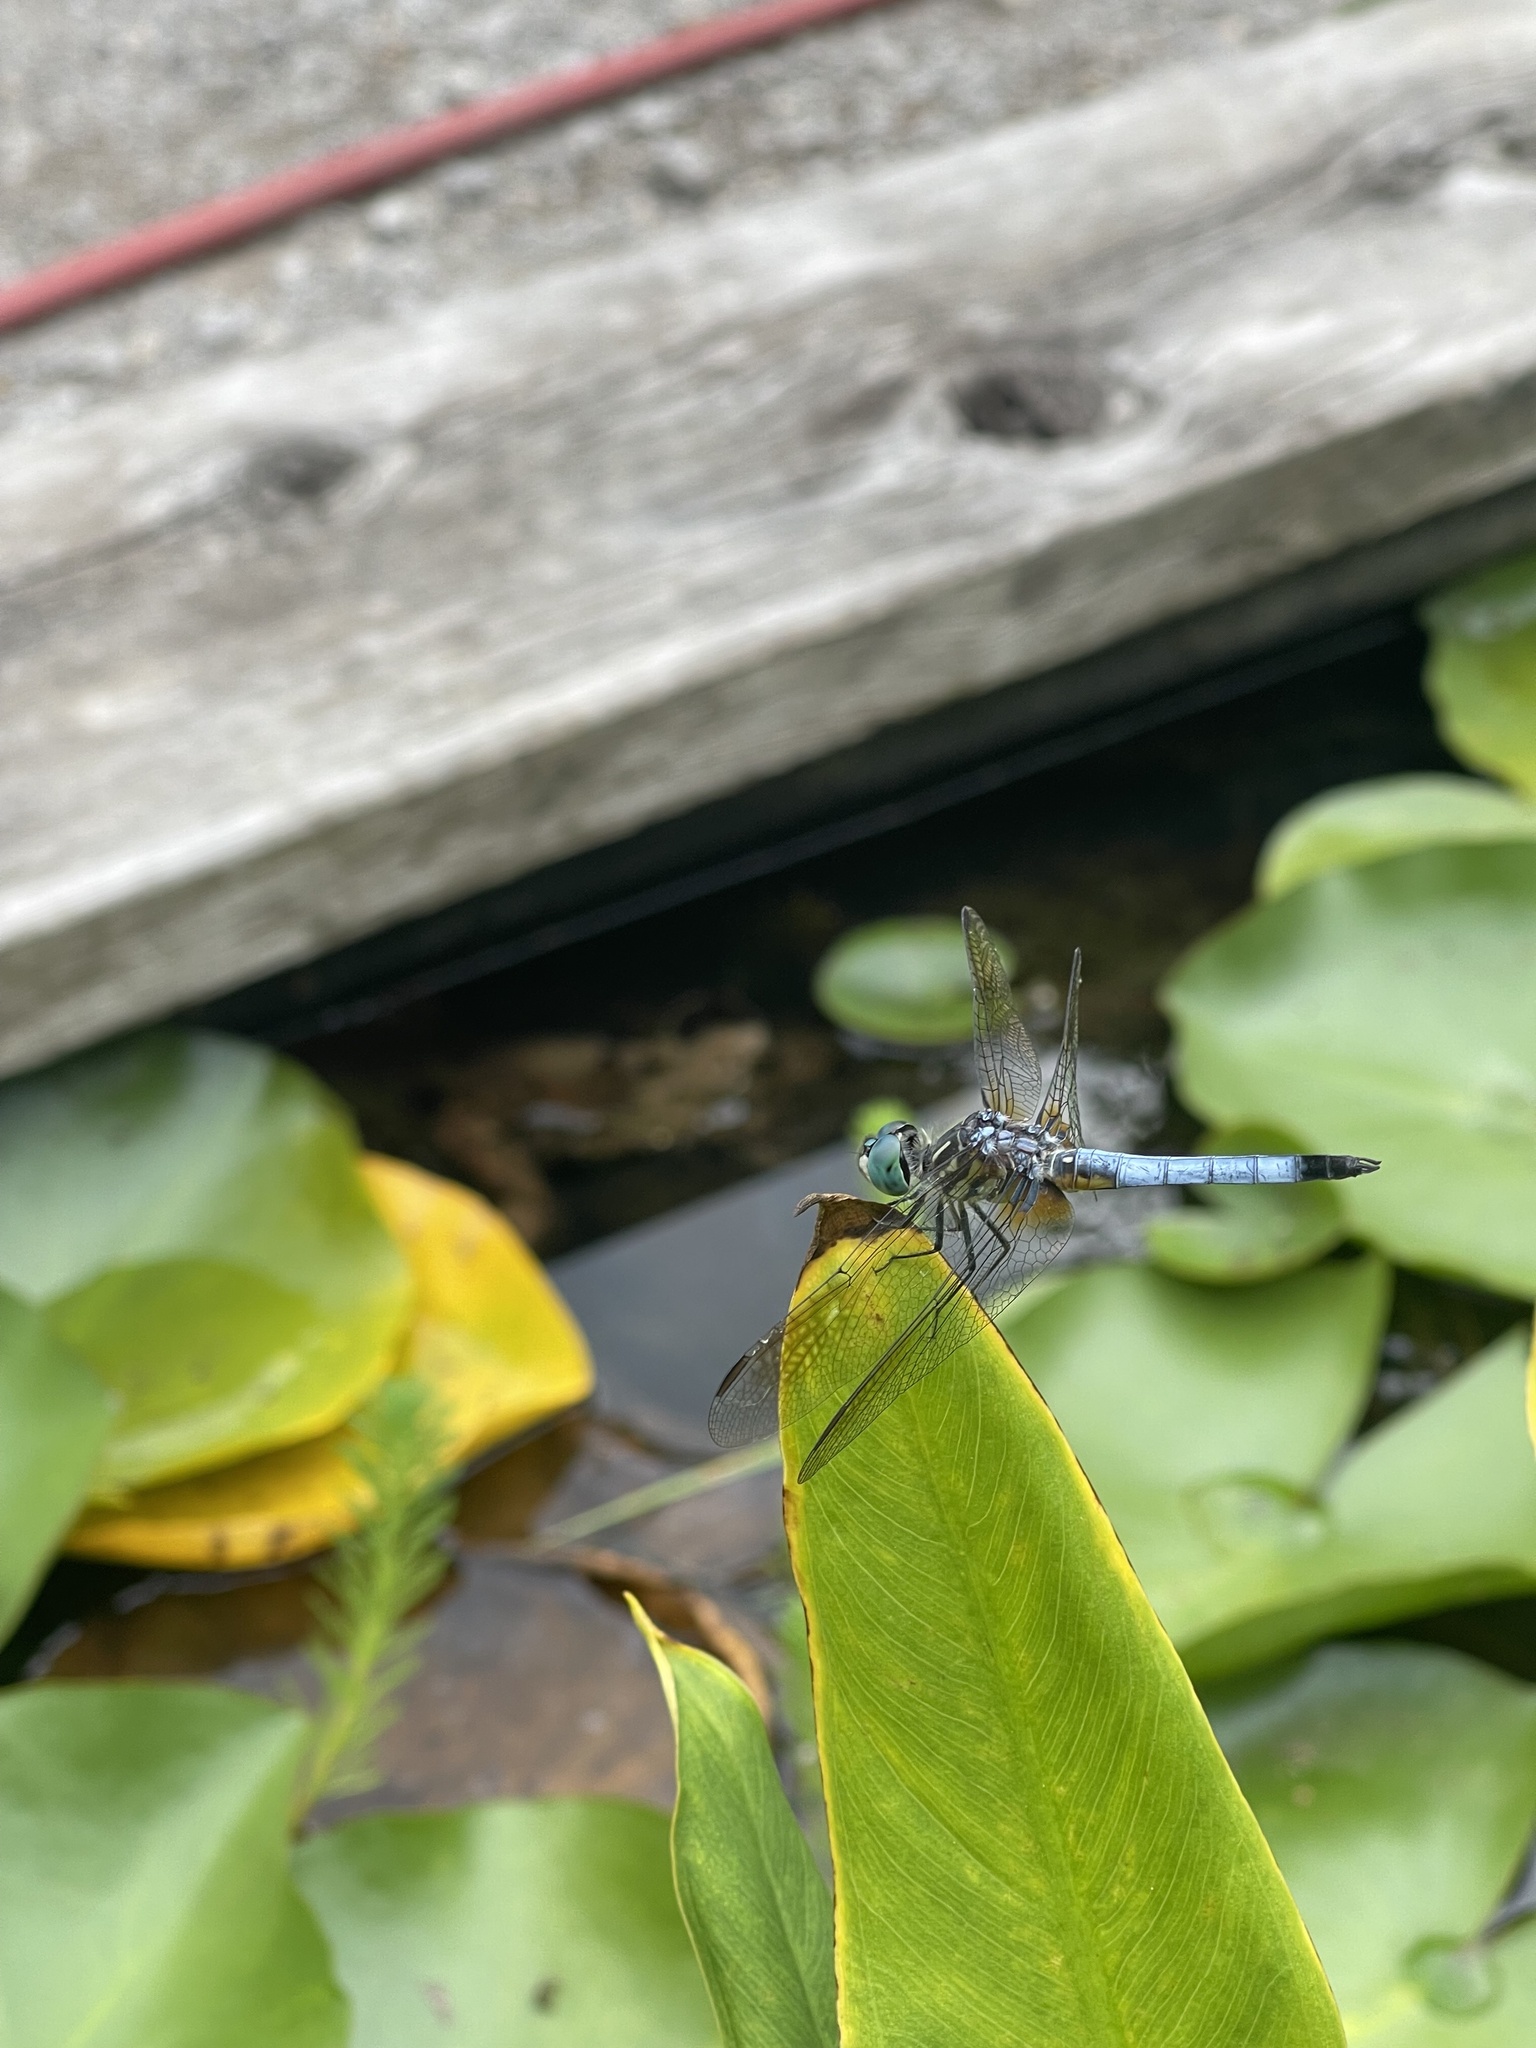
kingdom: Animalia
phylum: Arthropoda
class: Insecta
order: Odonata
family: Libellulidae
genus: Pachydiplax
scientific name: Pachydiplax longipennis
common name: Blue dasher
